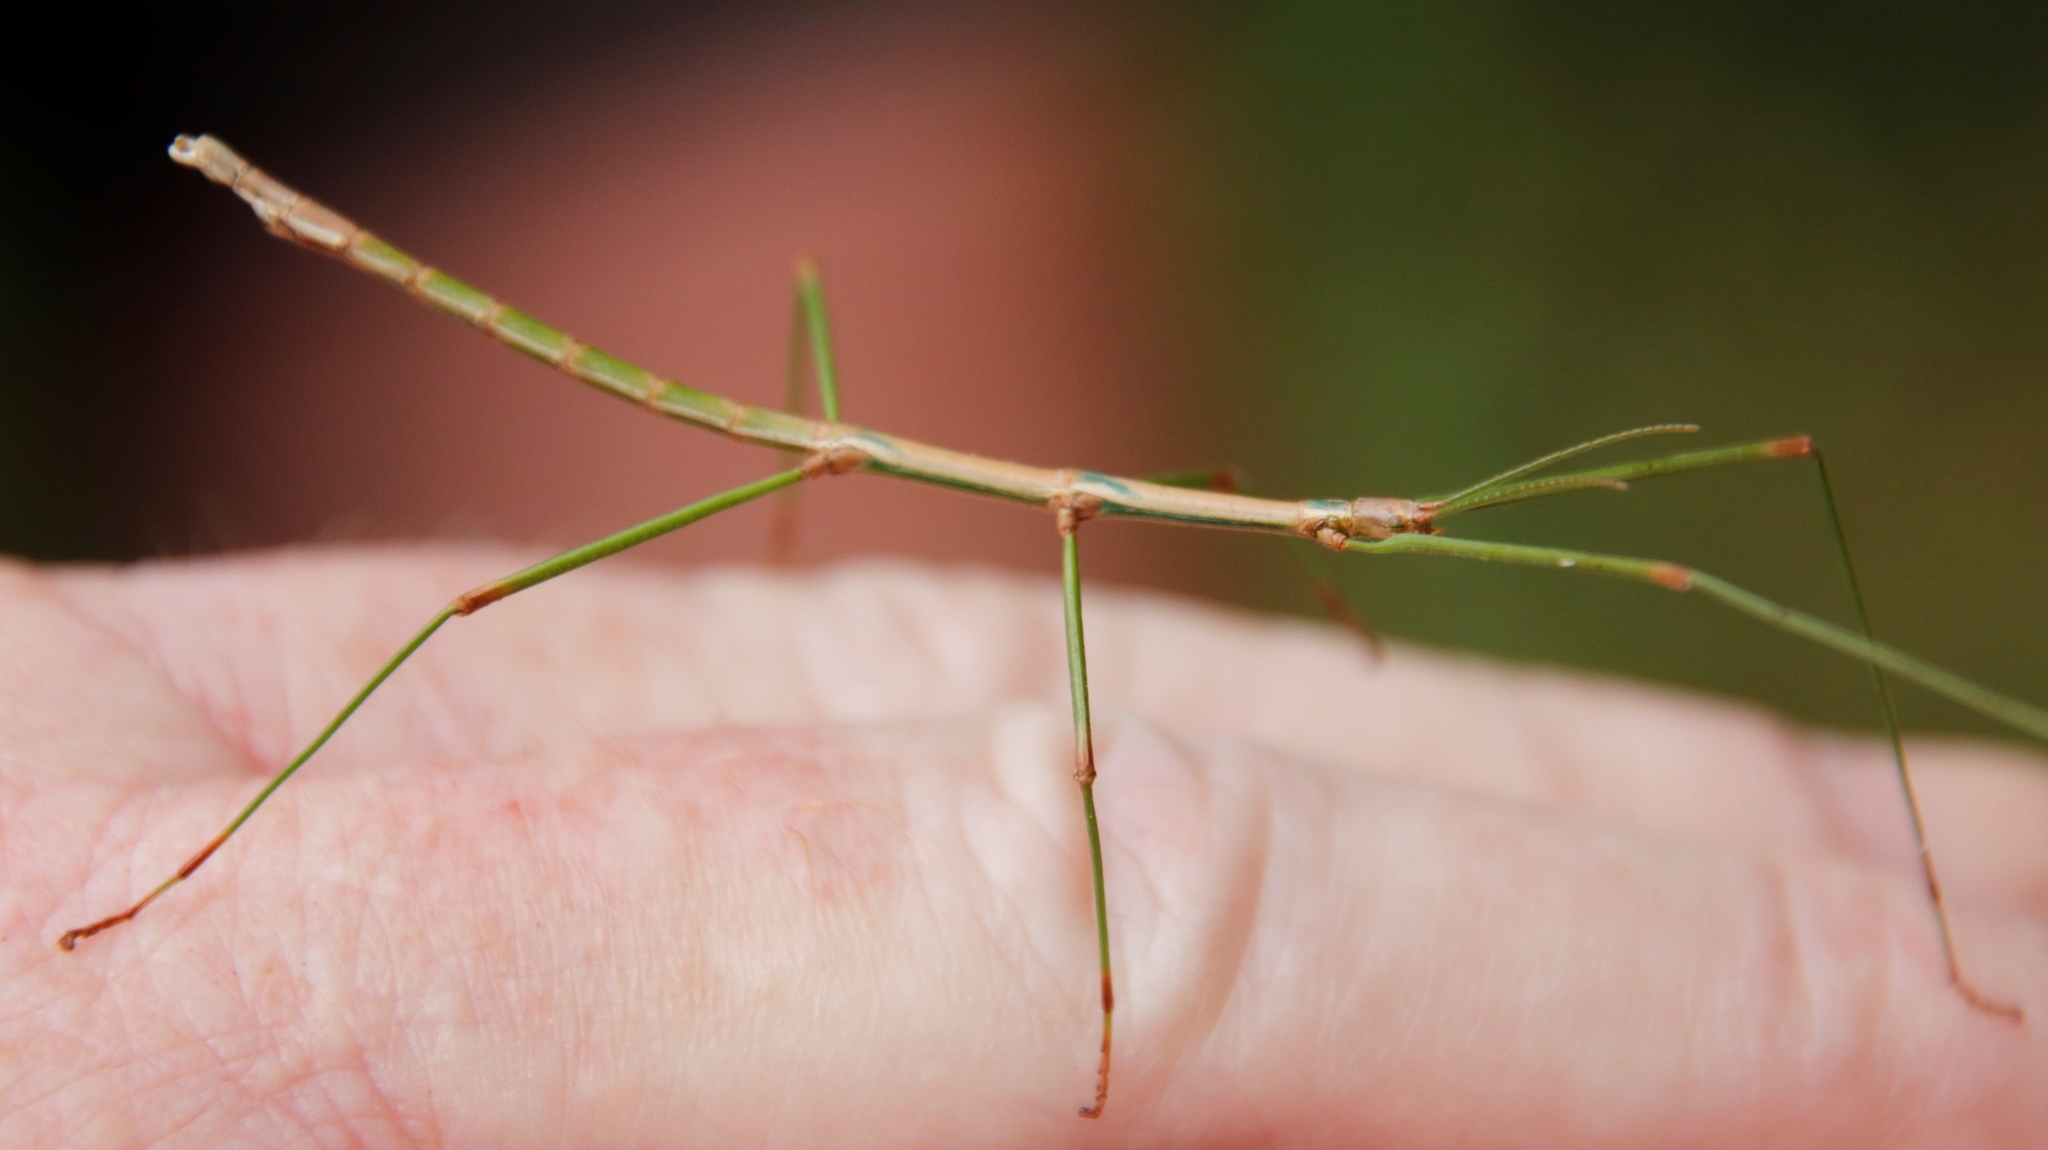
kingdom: Animalia
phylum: Arthropoda
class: Insecta
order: Phasmida
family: Bacillidae
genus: Phalces
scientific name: Phalces brevis
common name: Cape stick insect
